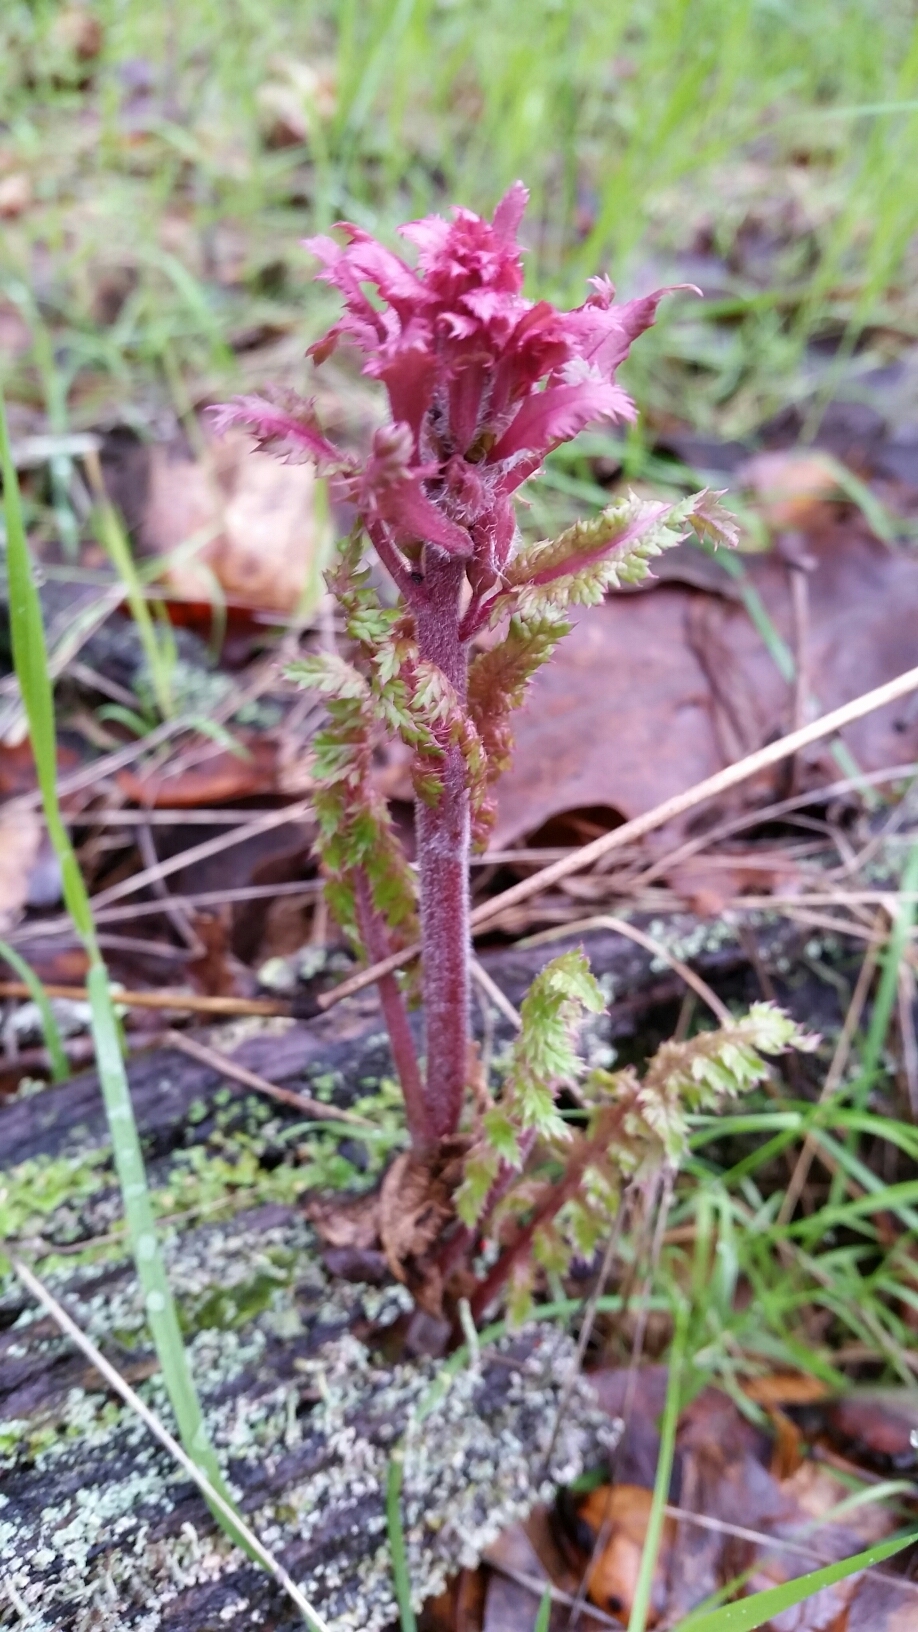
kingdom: Plantae
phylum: Tracheophyta
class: Magnoliopsida
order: Lamiales
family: Orobanchaceae
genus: Pedicularis
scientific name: Pedicularis densiflora
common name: Indian warrior
